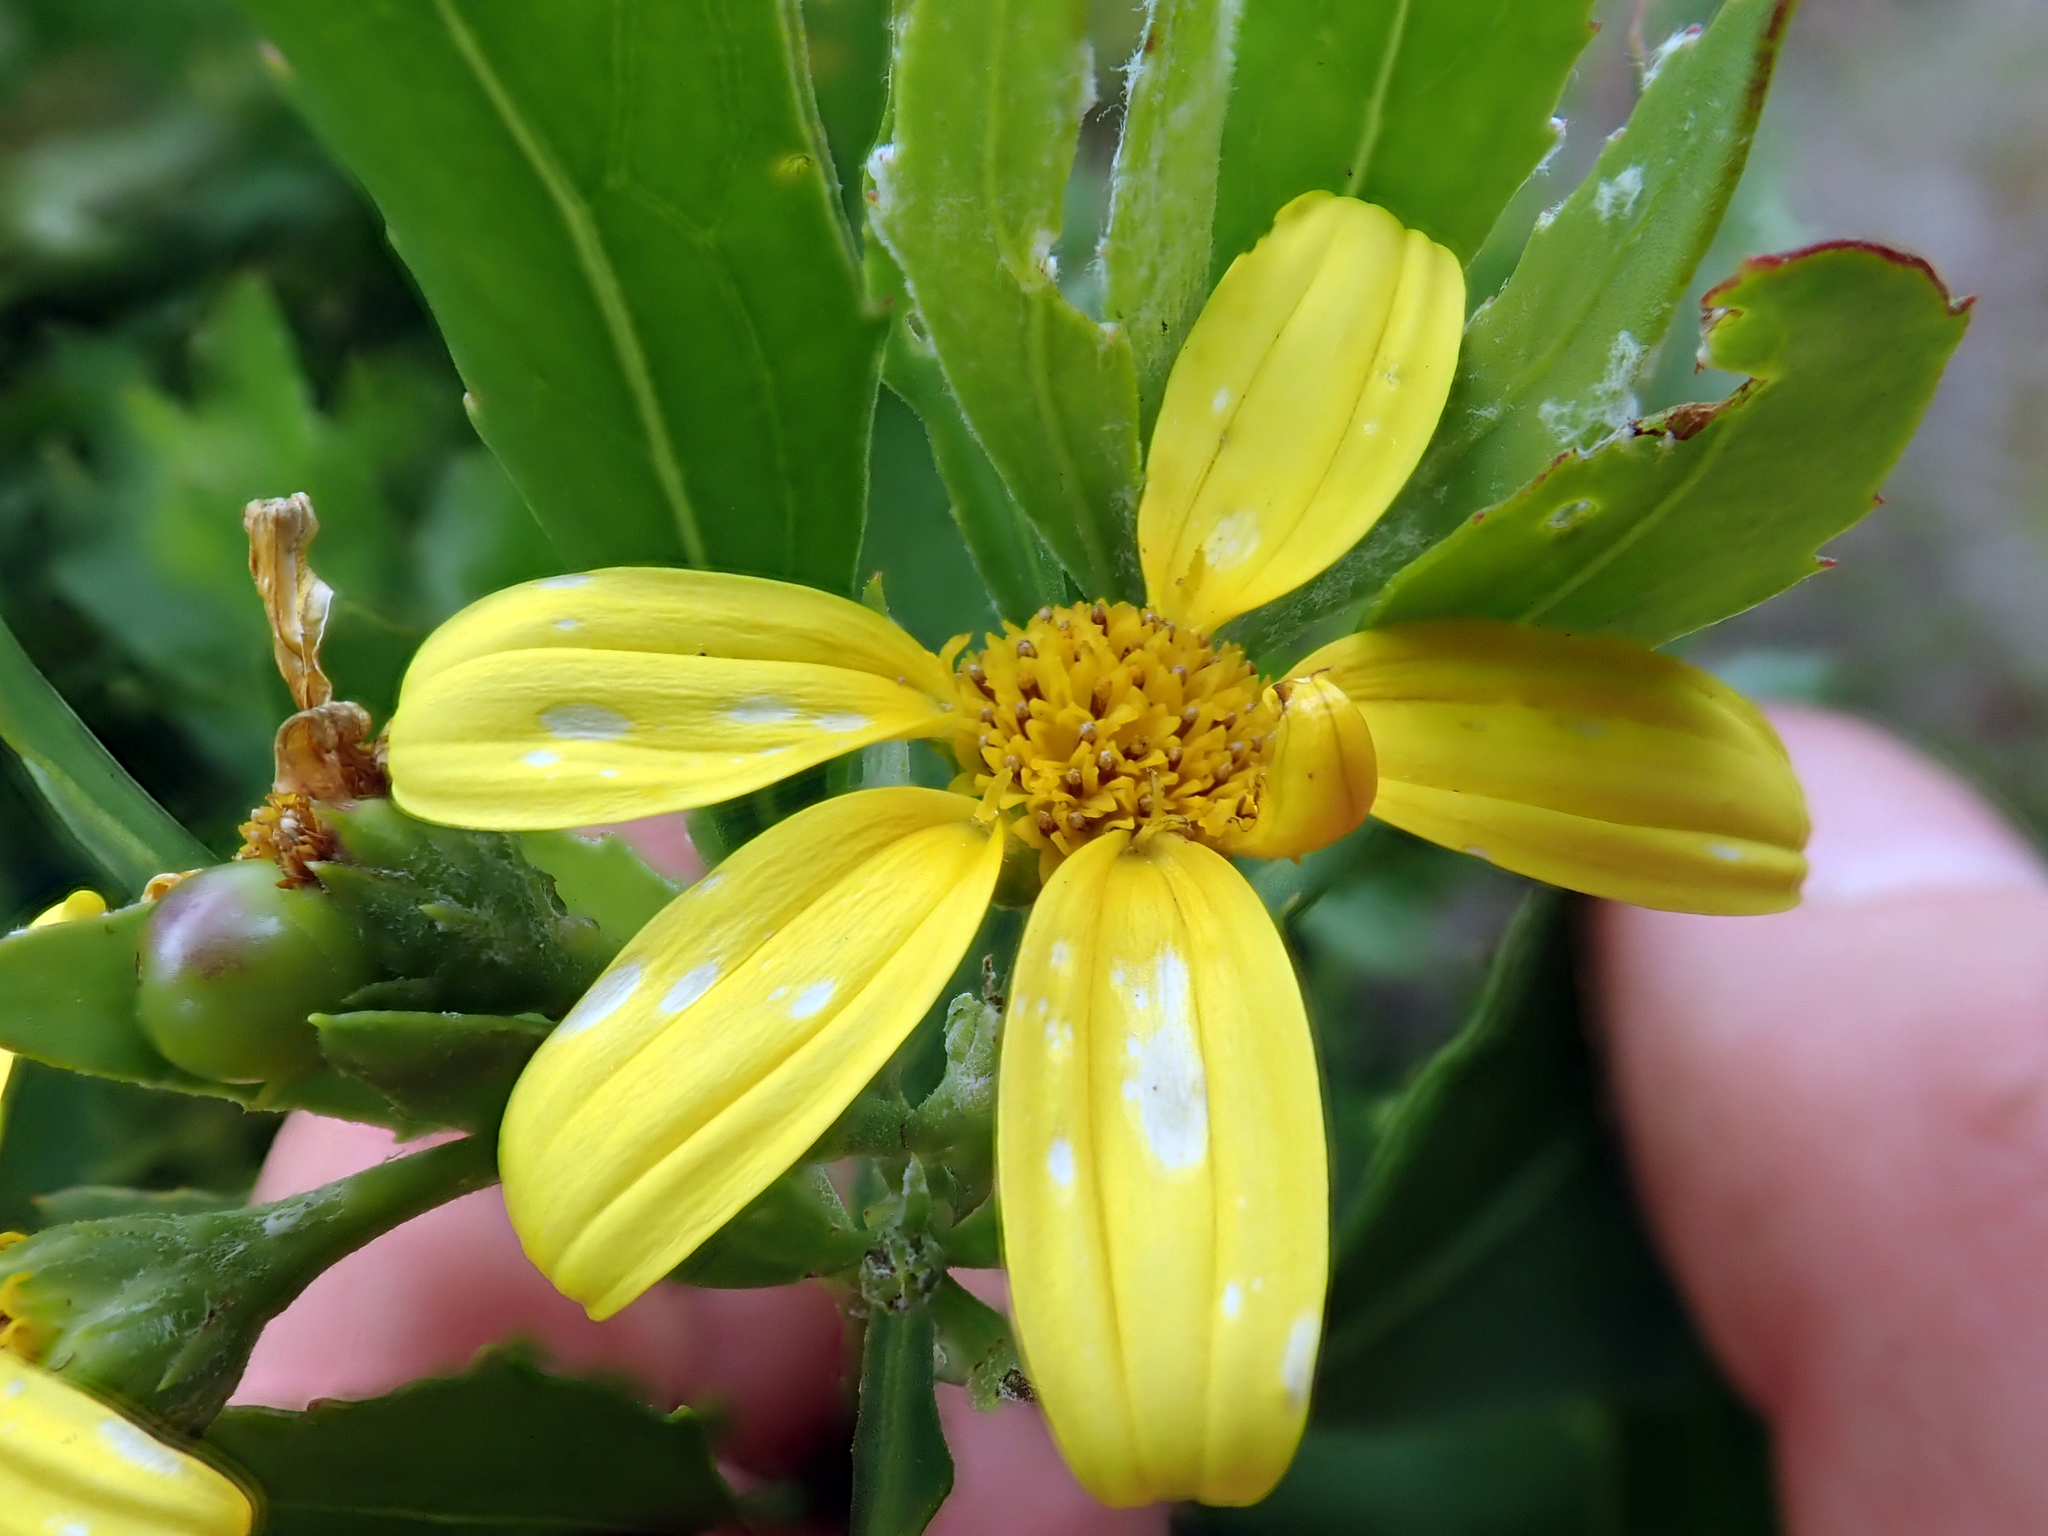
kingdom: Plantae
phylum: Tracheophyta
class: Magnoliopsida
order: Asterales
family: Asteraceae
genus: Osteospermum
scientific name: Osteospermum moniliferum
